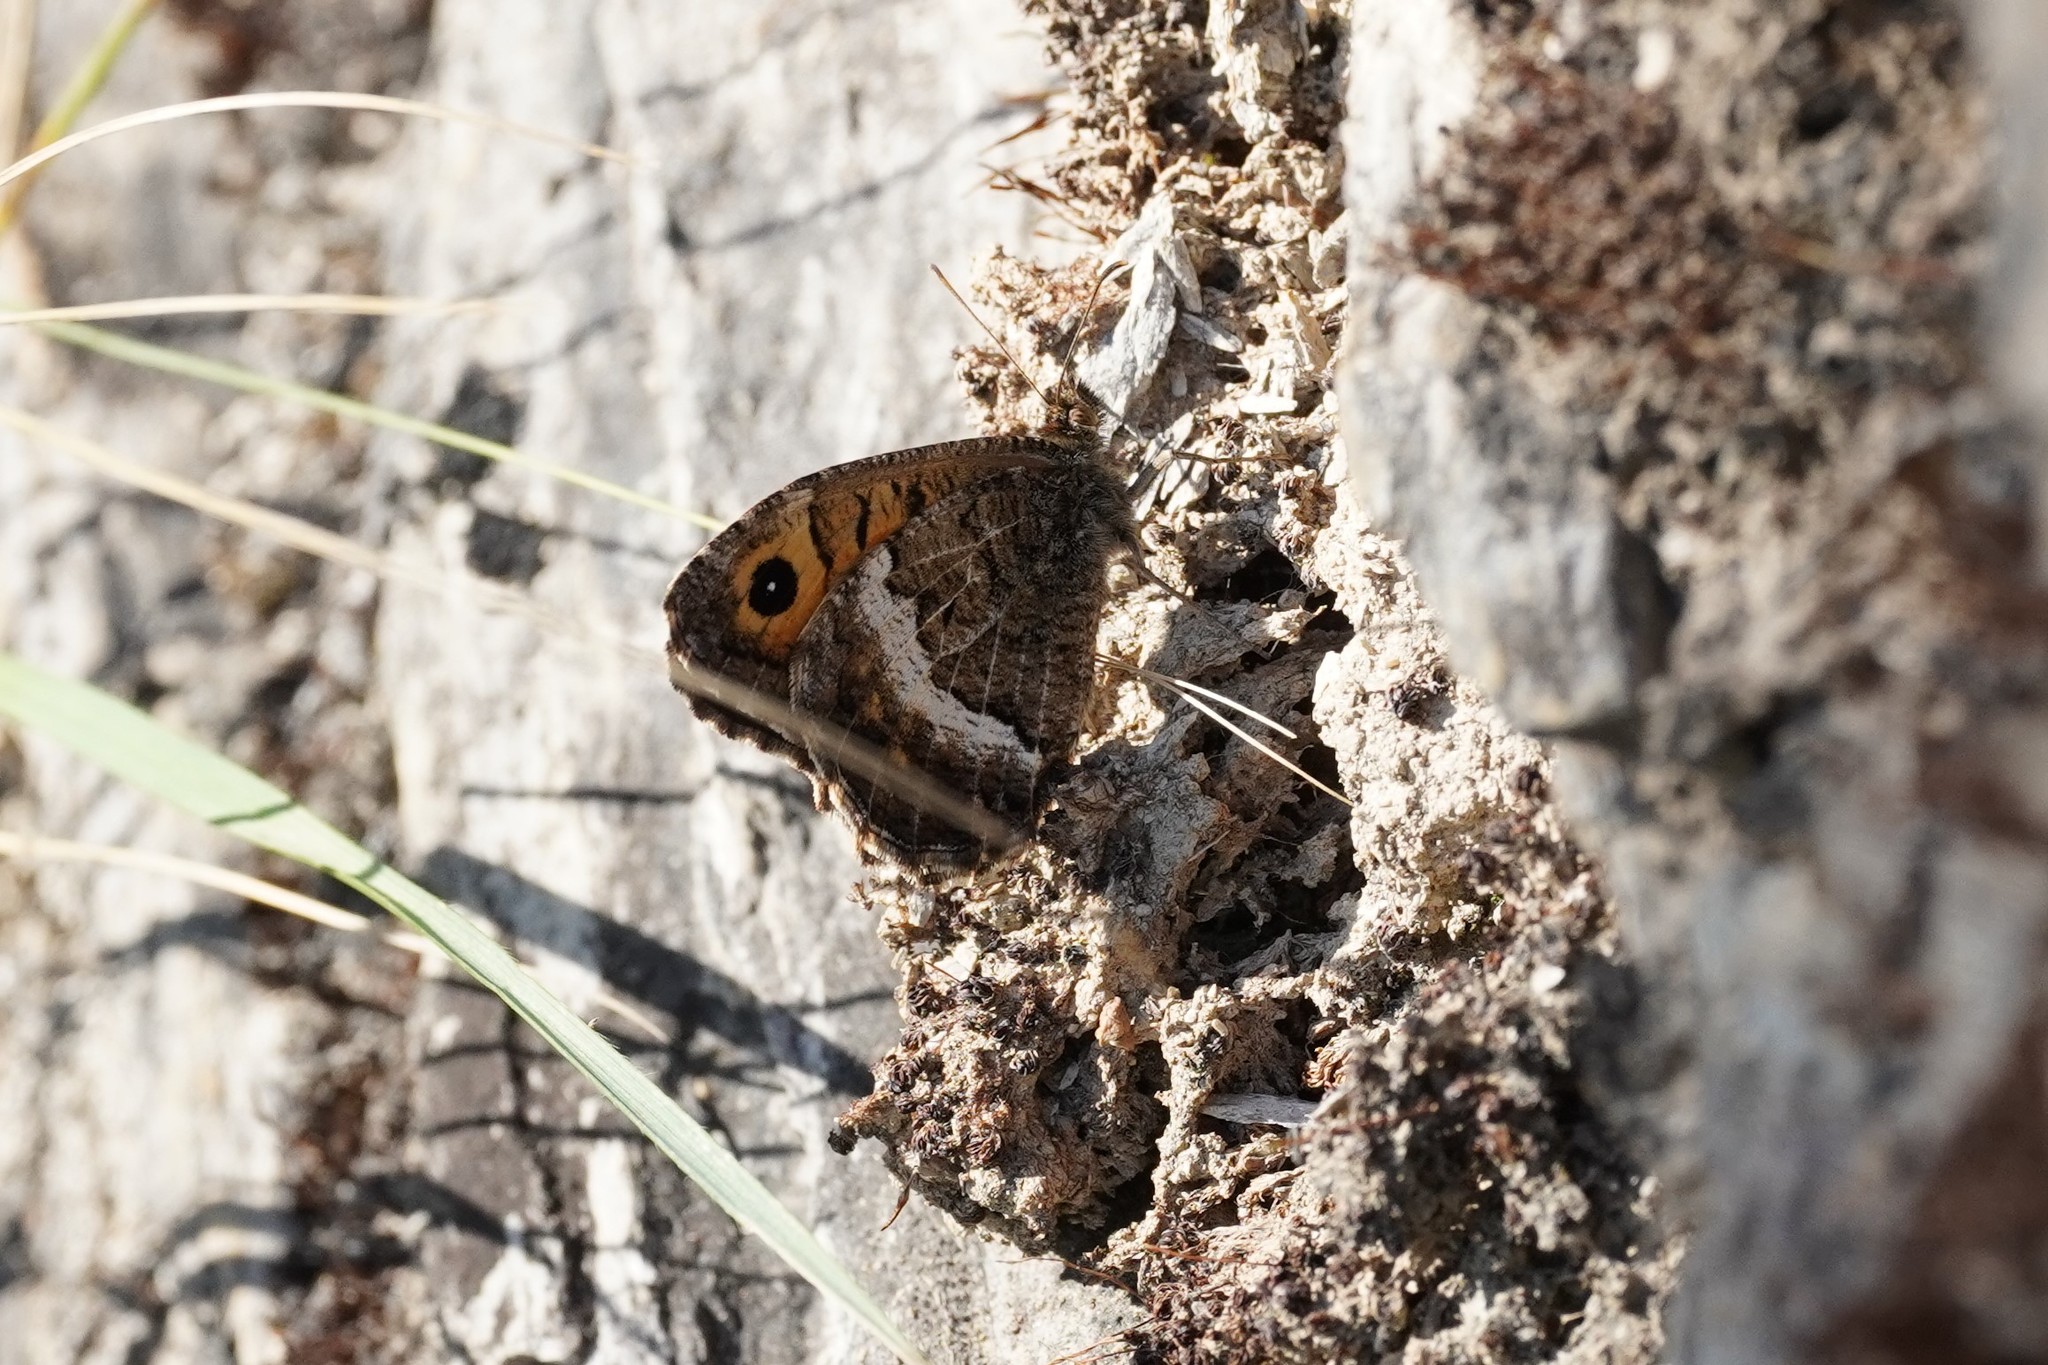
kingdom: Animalia
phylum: Arthropoda
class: Insecta
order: Lepidoptera
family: Nymphalidae
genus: Arethusana
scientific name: Arethusana arethusa
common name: False grayling
